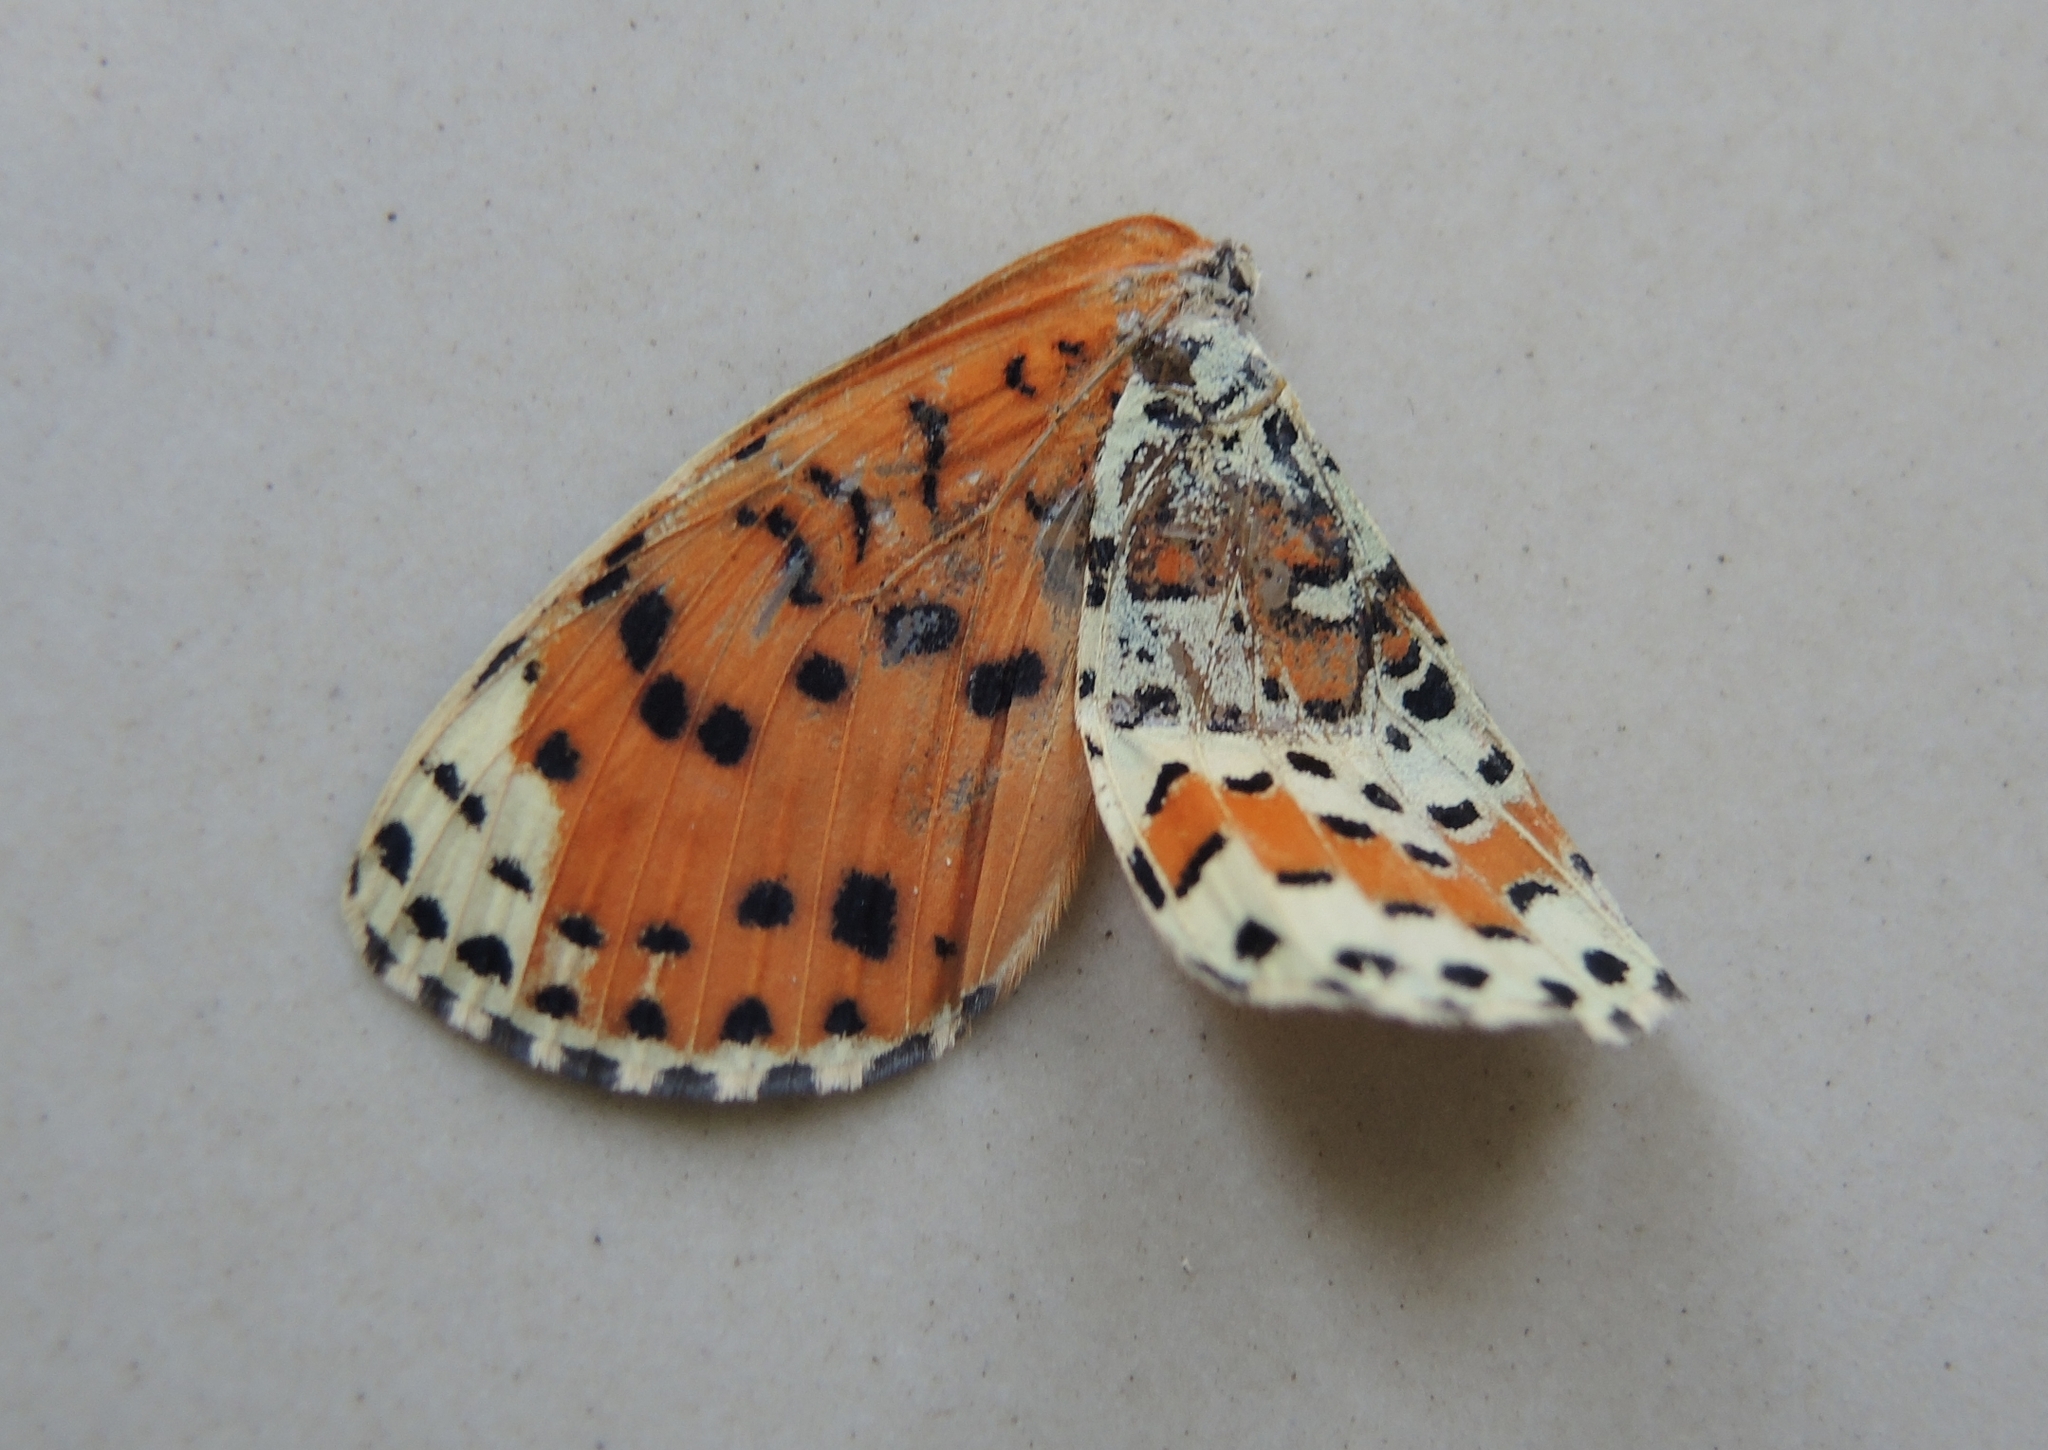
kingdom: Animalia
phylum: Arthropoda
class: Insecta
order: Lepidoptera
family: Nymphalidae
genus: Melitaea
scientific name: Melitaea didyma
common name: Spotted fritillary
